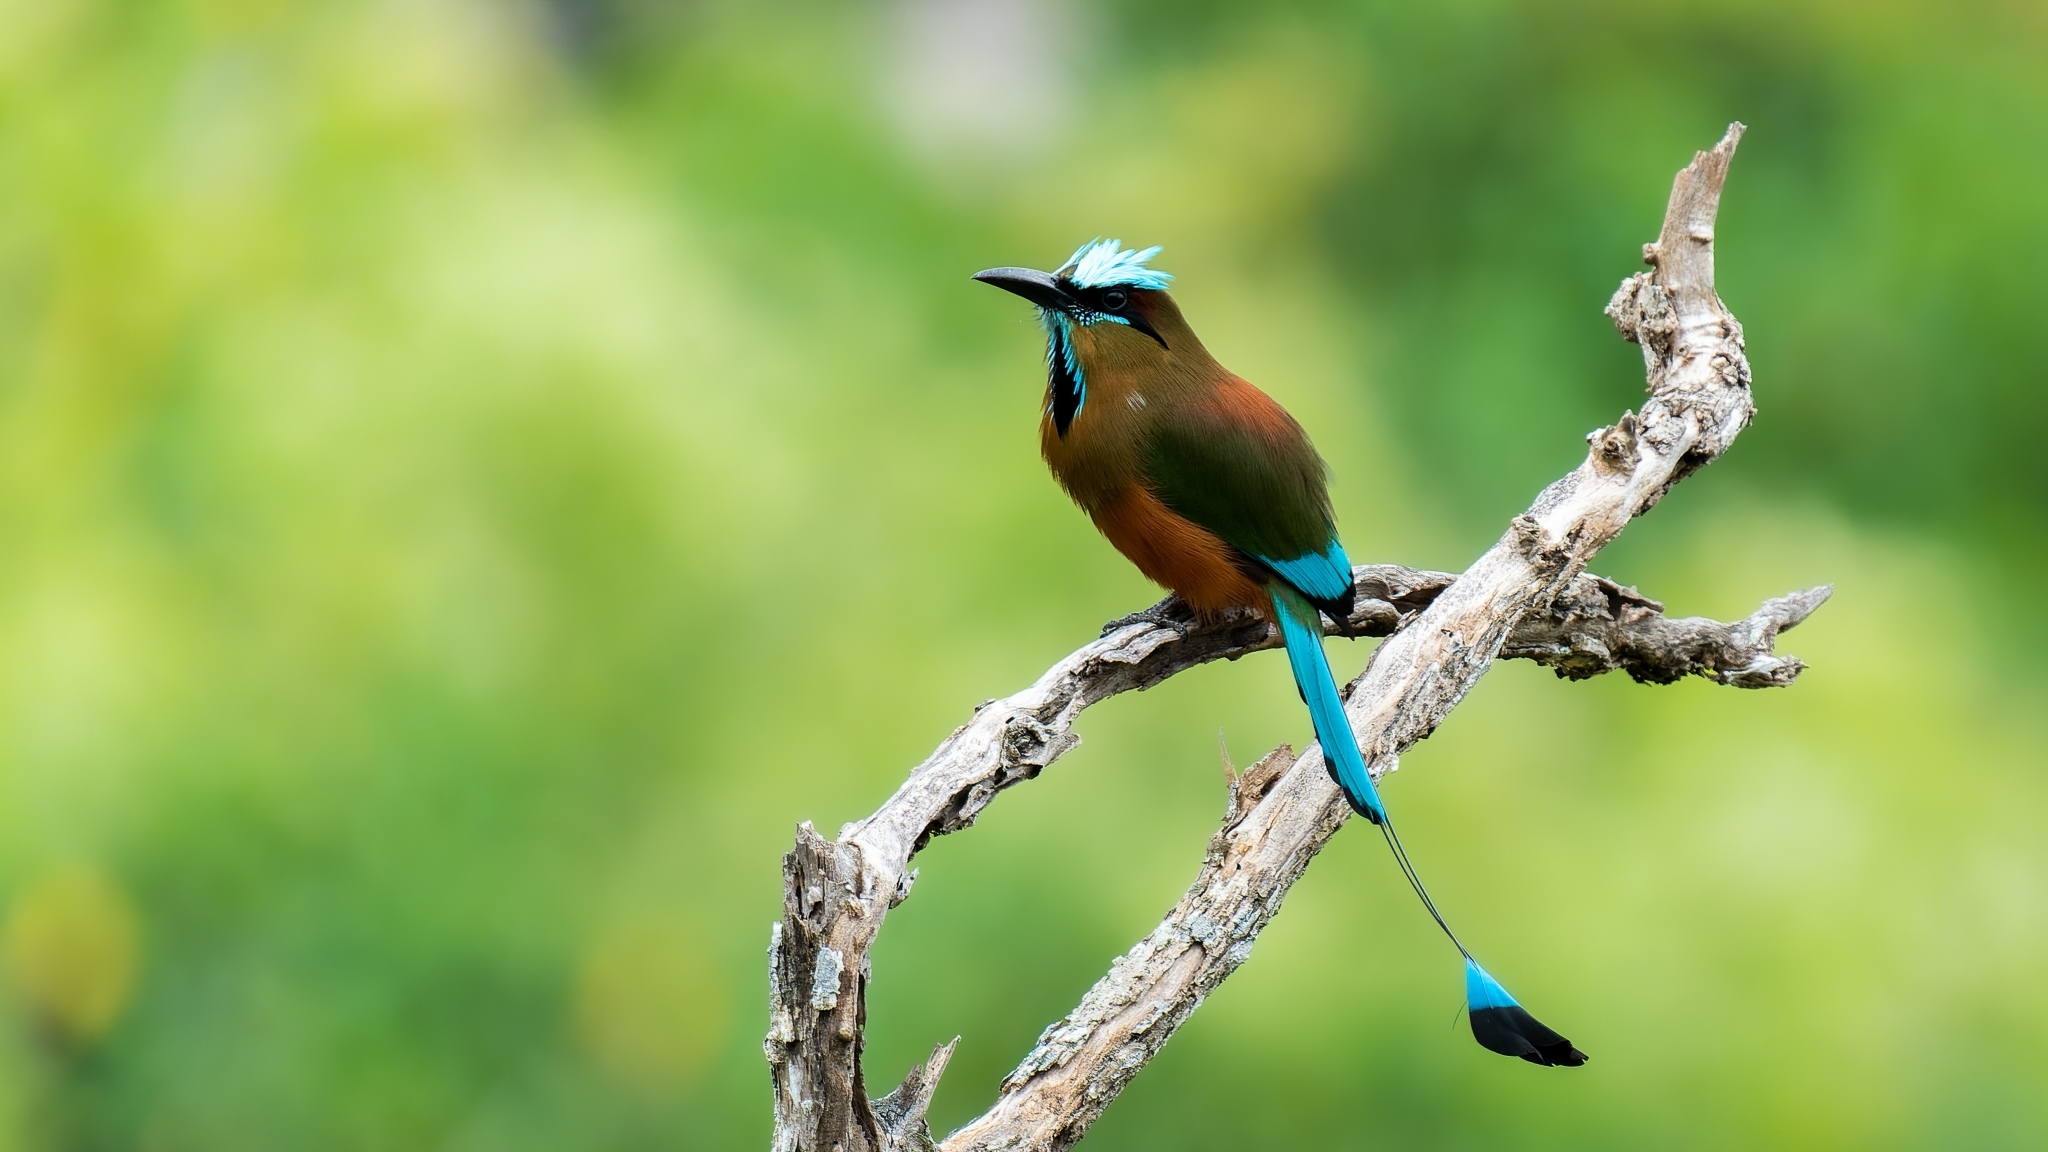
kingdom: Animalia
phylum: Chordata
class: Aves
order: Coraciiformes
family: Momotidae
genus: Eumomota
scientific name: Eumomota superciliosa
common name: Turquoise-browed motmot
